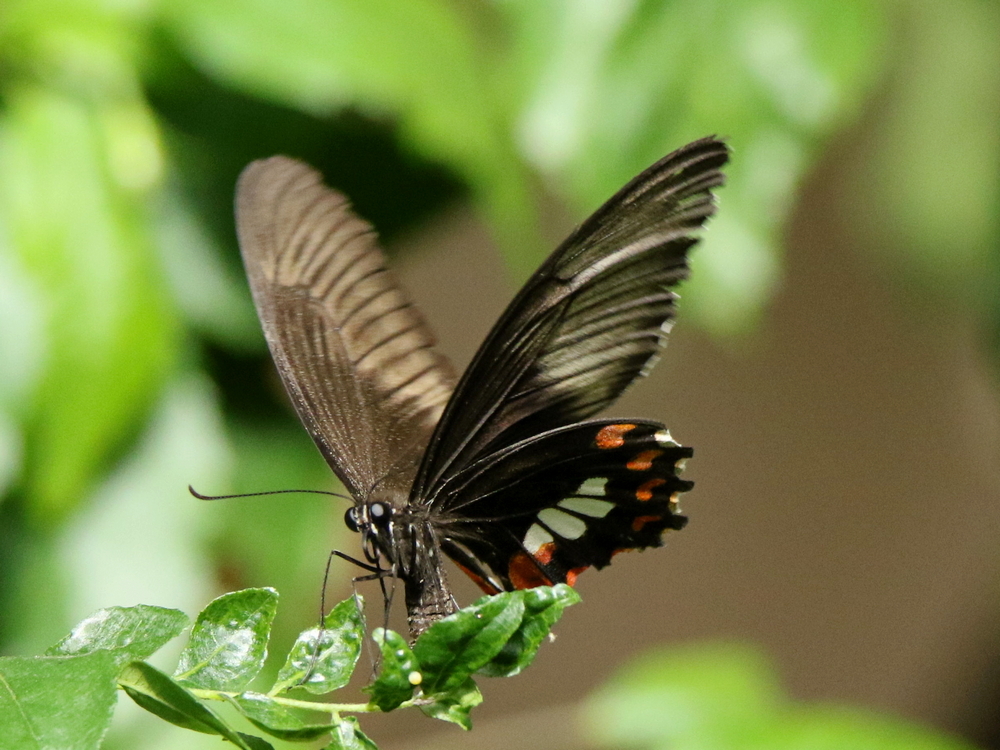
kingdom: Animalia
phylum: Arthropoda
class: Insecta
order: Lepidoptera
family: Papilionidae
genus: Papilio
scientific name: Papilio polytes
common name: Common mormon
